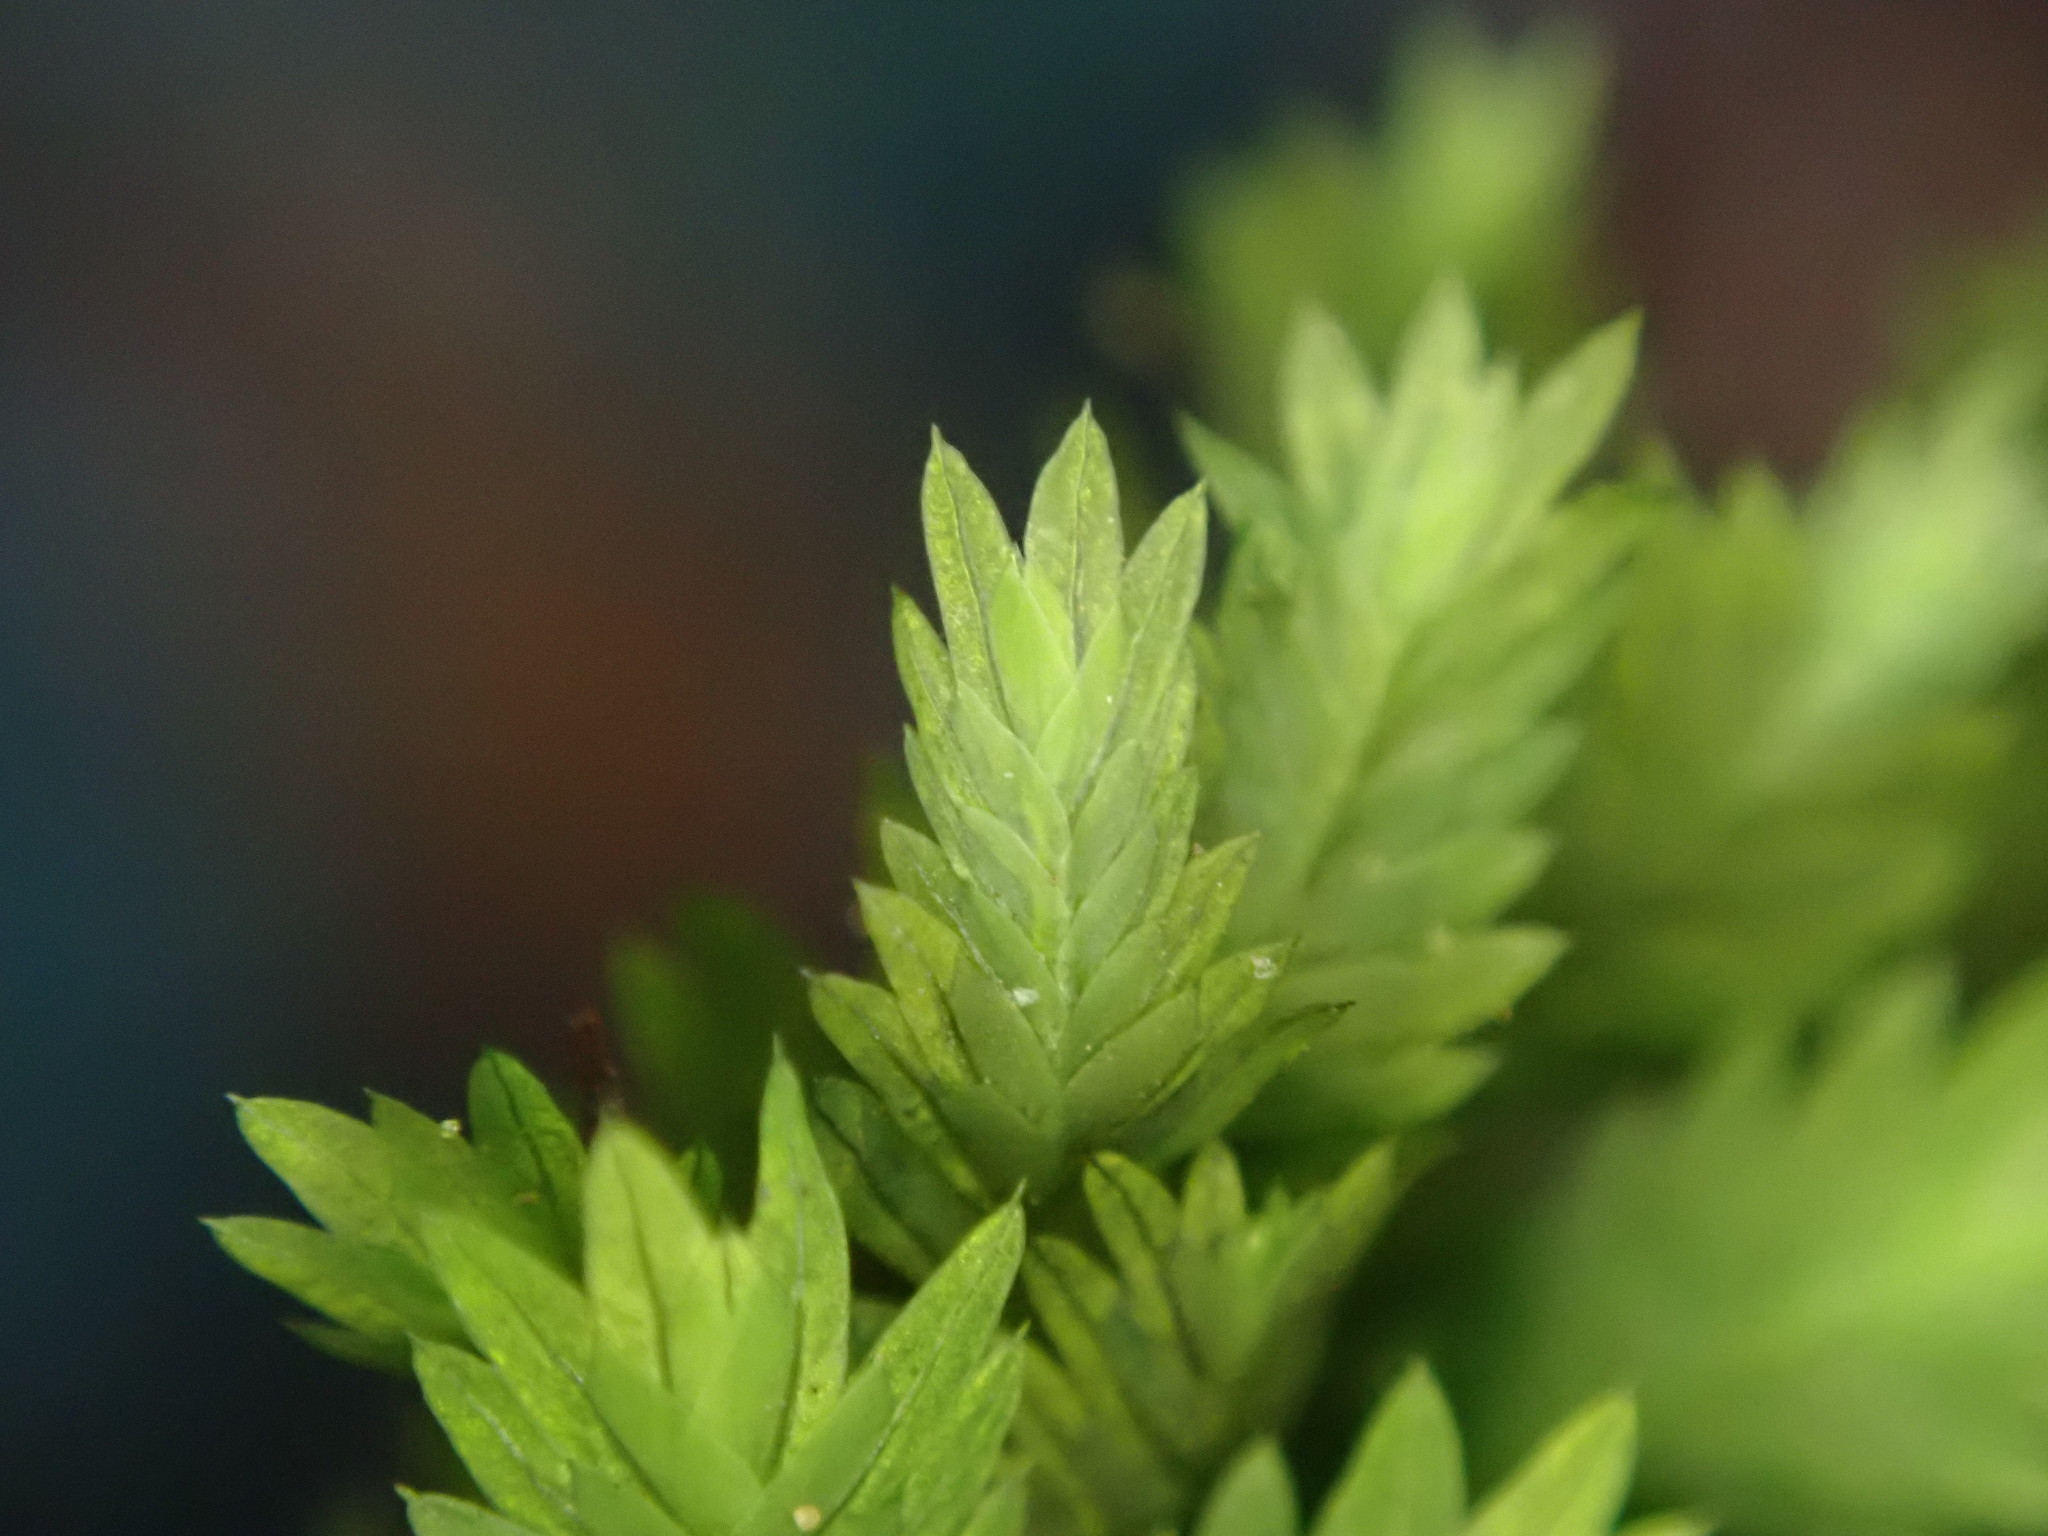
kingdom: Plantae
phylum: Bryophyta
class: Bryopsida
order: Dicranales
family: Fissidentaceae
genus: Fissidens
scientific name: Fissidens taxifolius
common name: Yew-leaved pocket moss
